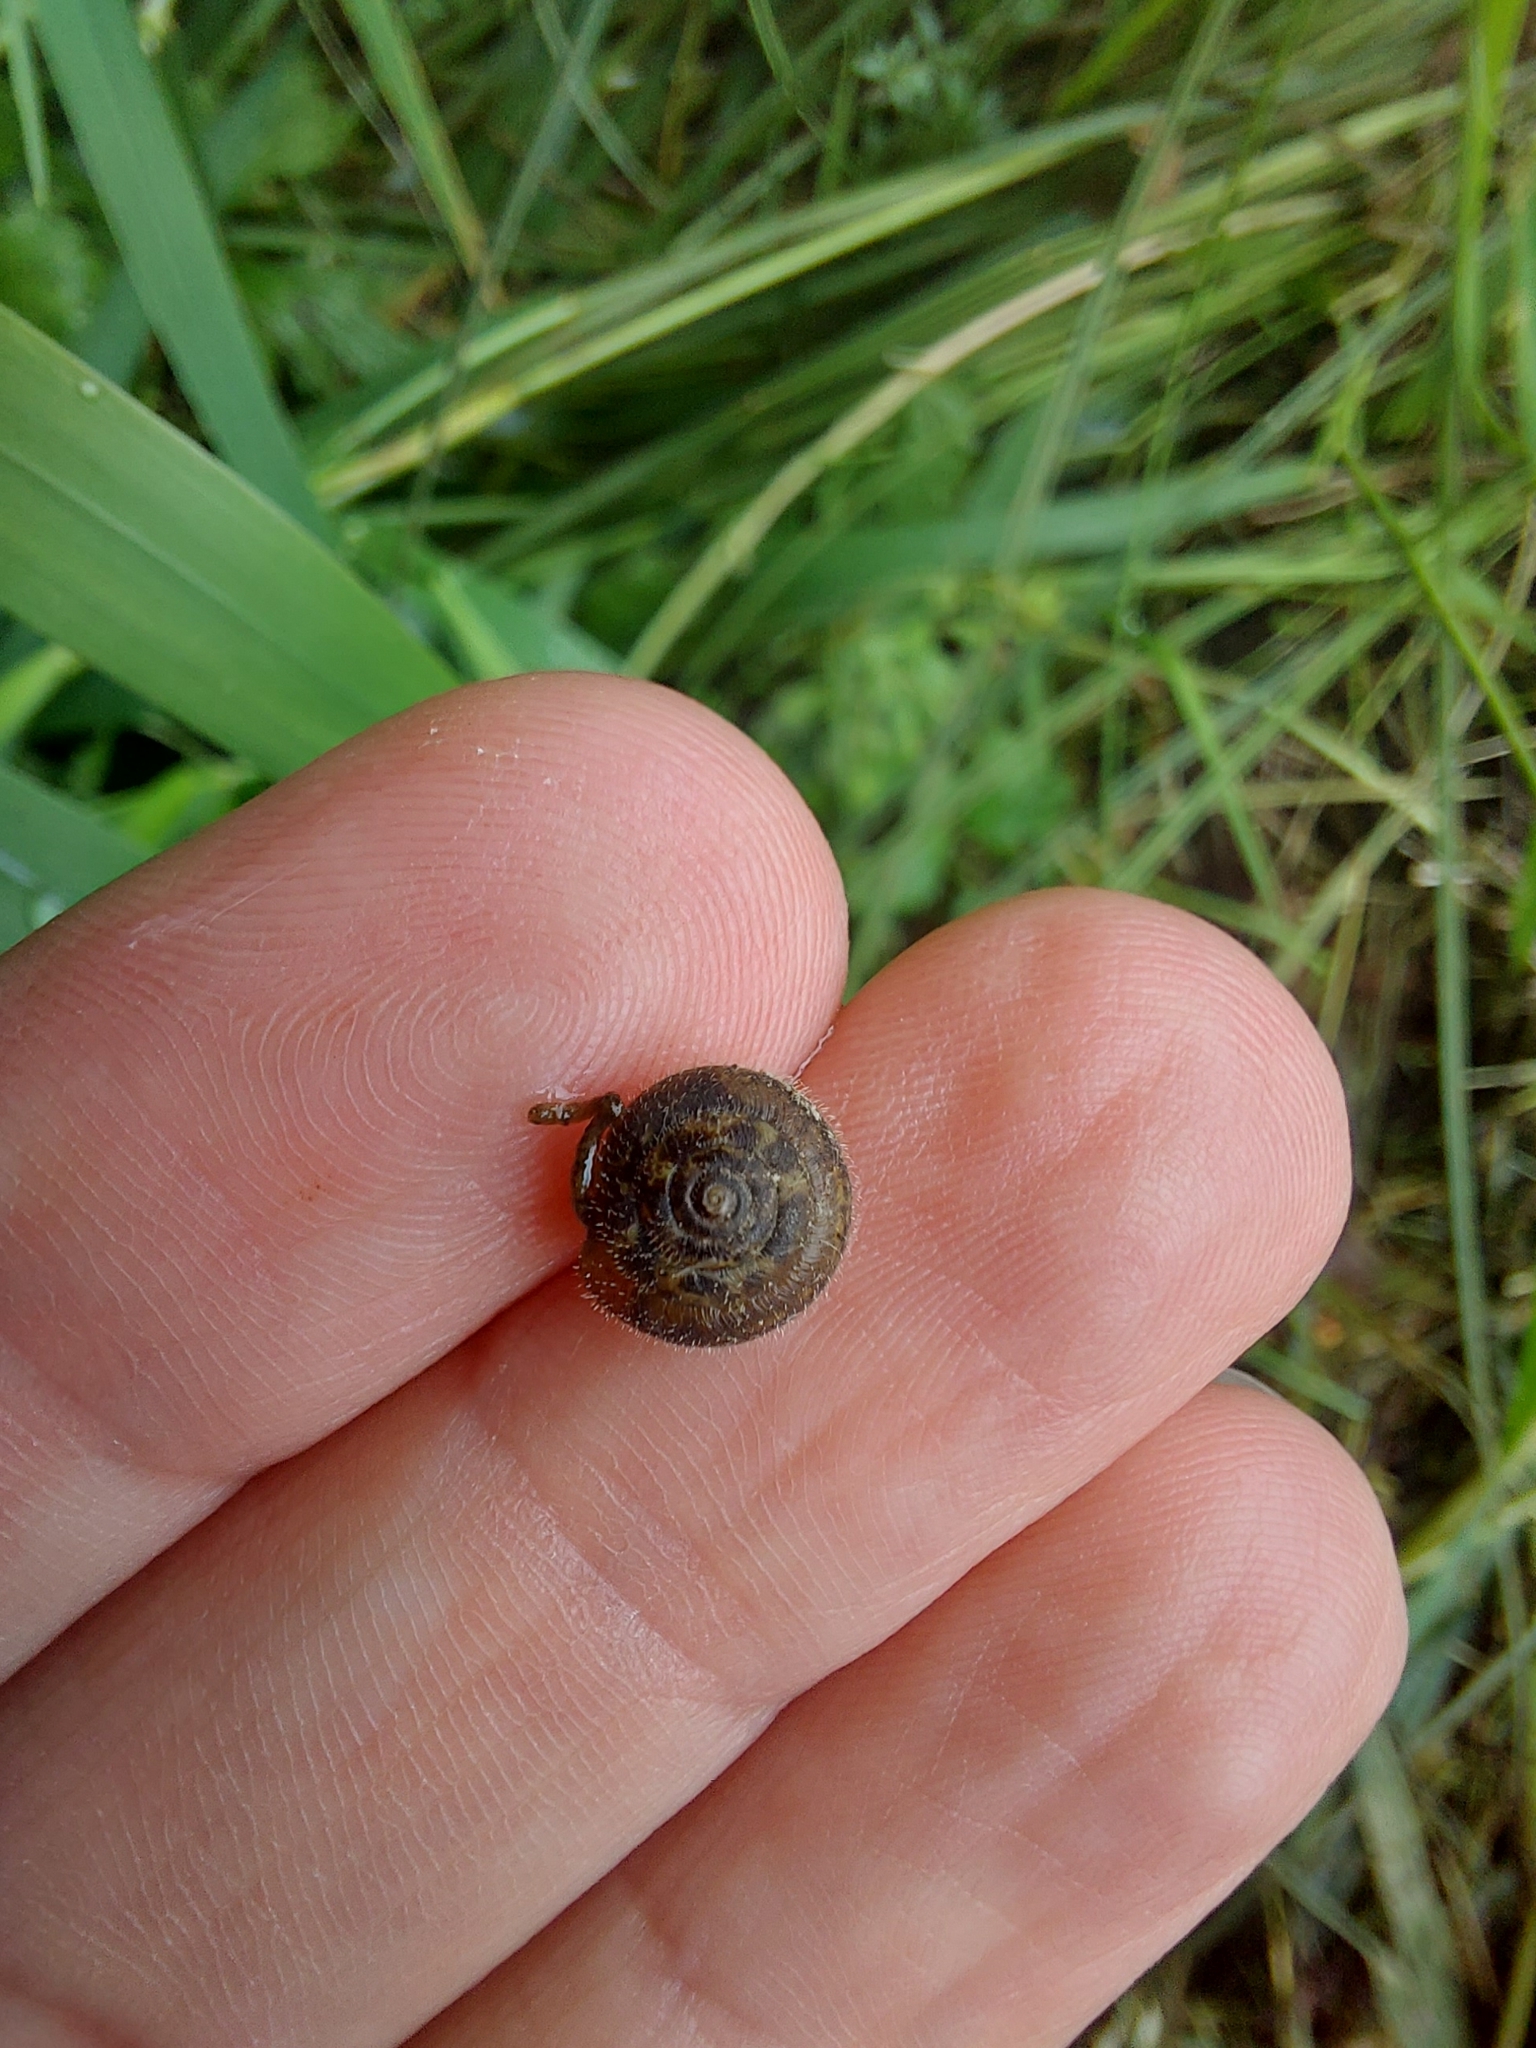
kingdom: Animalia
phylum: Mollusca
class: Gastropoda
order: Stylommatophora
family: Hygromiidae
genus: Trochulus
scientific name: Trochulus hispidus
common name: Hairy snail
